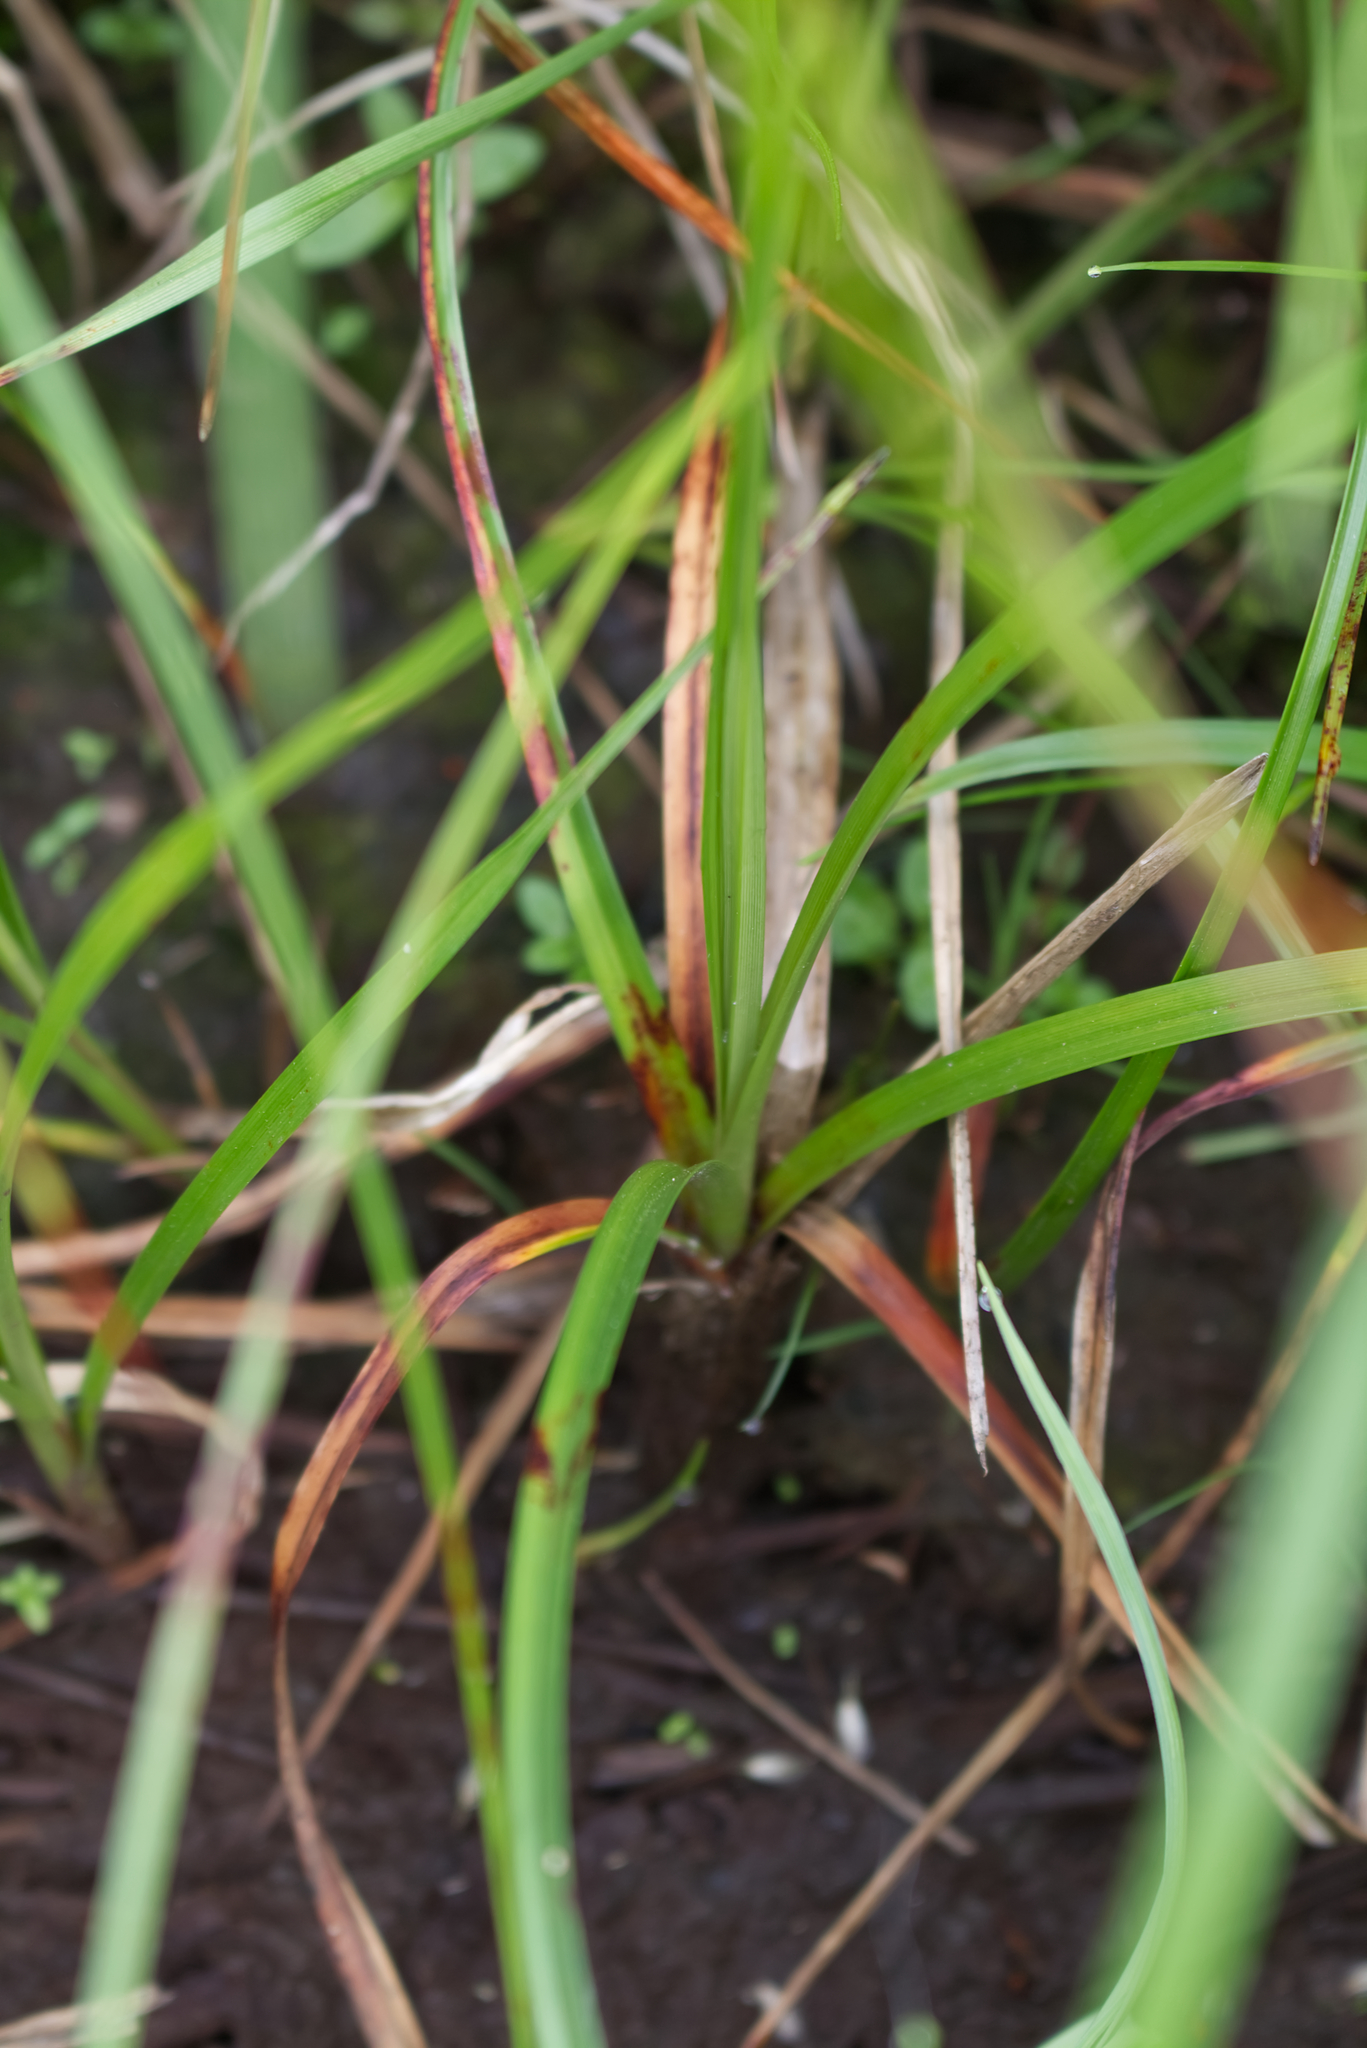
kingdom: Plantae
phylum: Tracheophyta
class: Liliopsida
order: Poales
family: Cyperaceae
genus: Eriophorum
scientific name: Eriophorum angustifolium
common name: Common cottongrass
